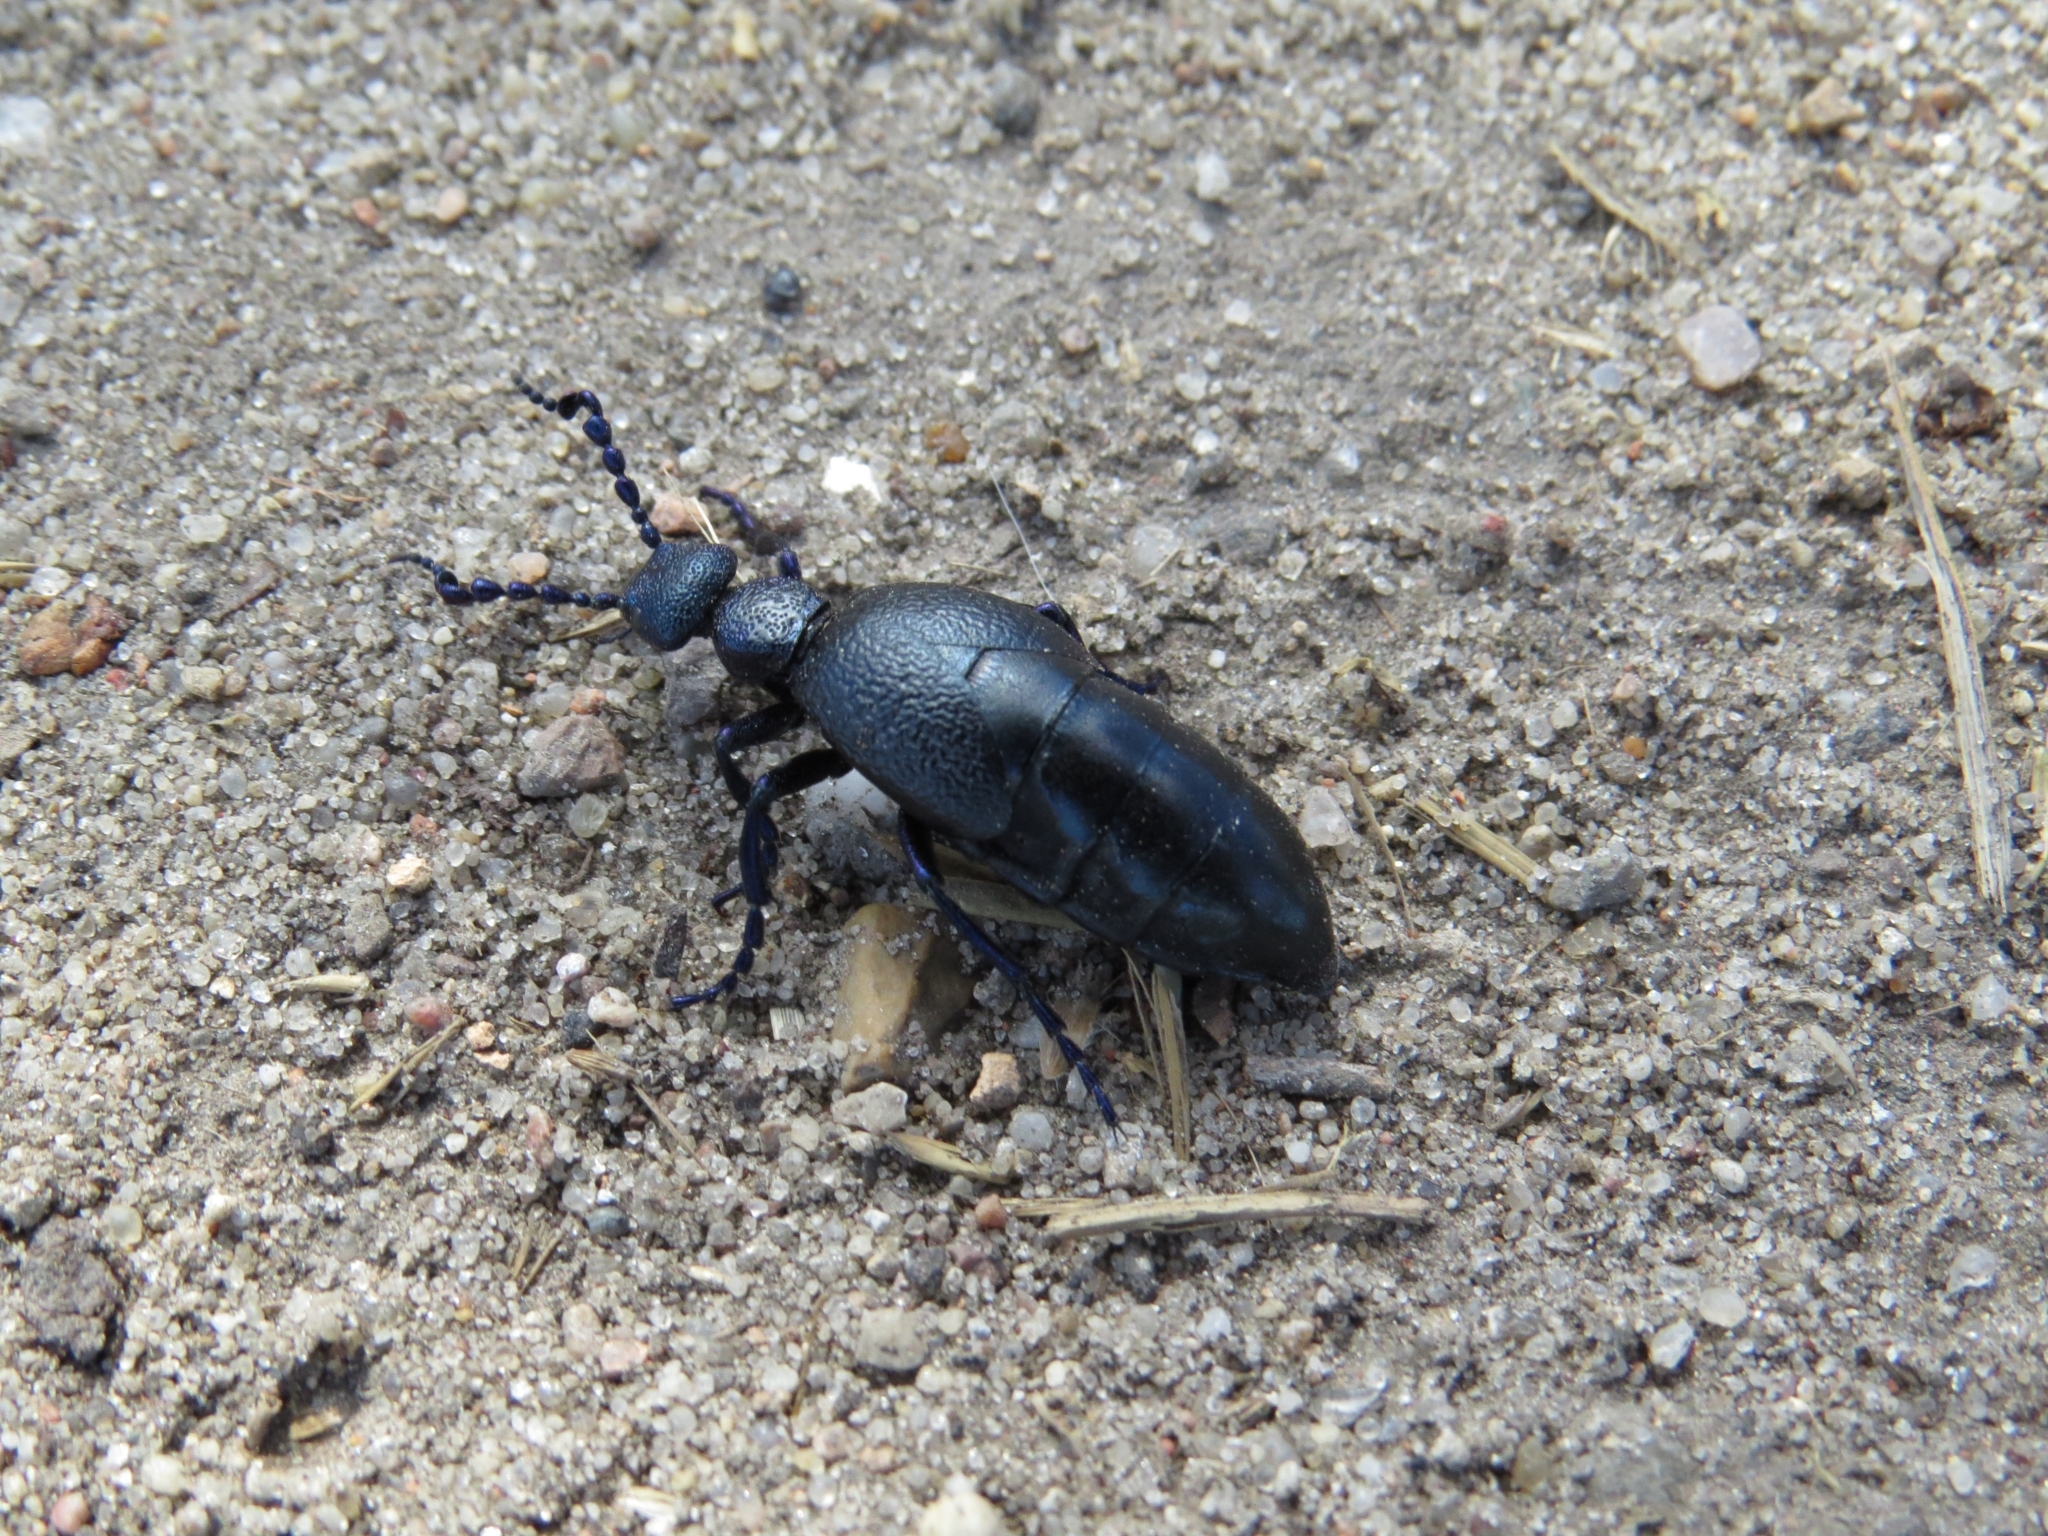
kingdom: Animalia
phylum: Arthropoda
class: Insecta
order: Coleoptera
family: Meloidae
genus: Meloe
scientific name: Meloe proscarabaeus
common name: Black oil-beetle
